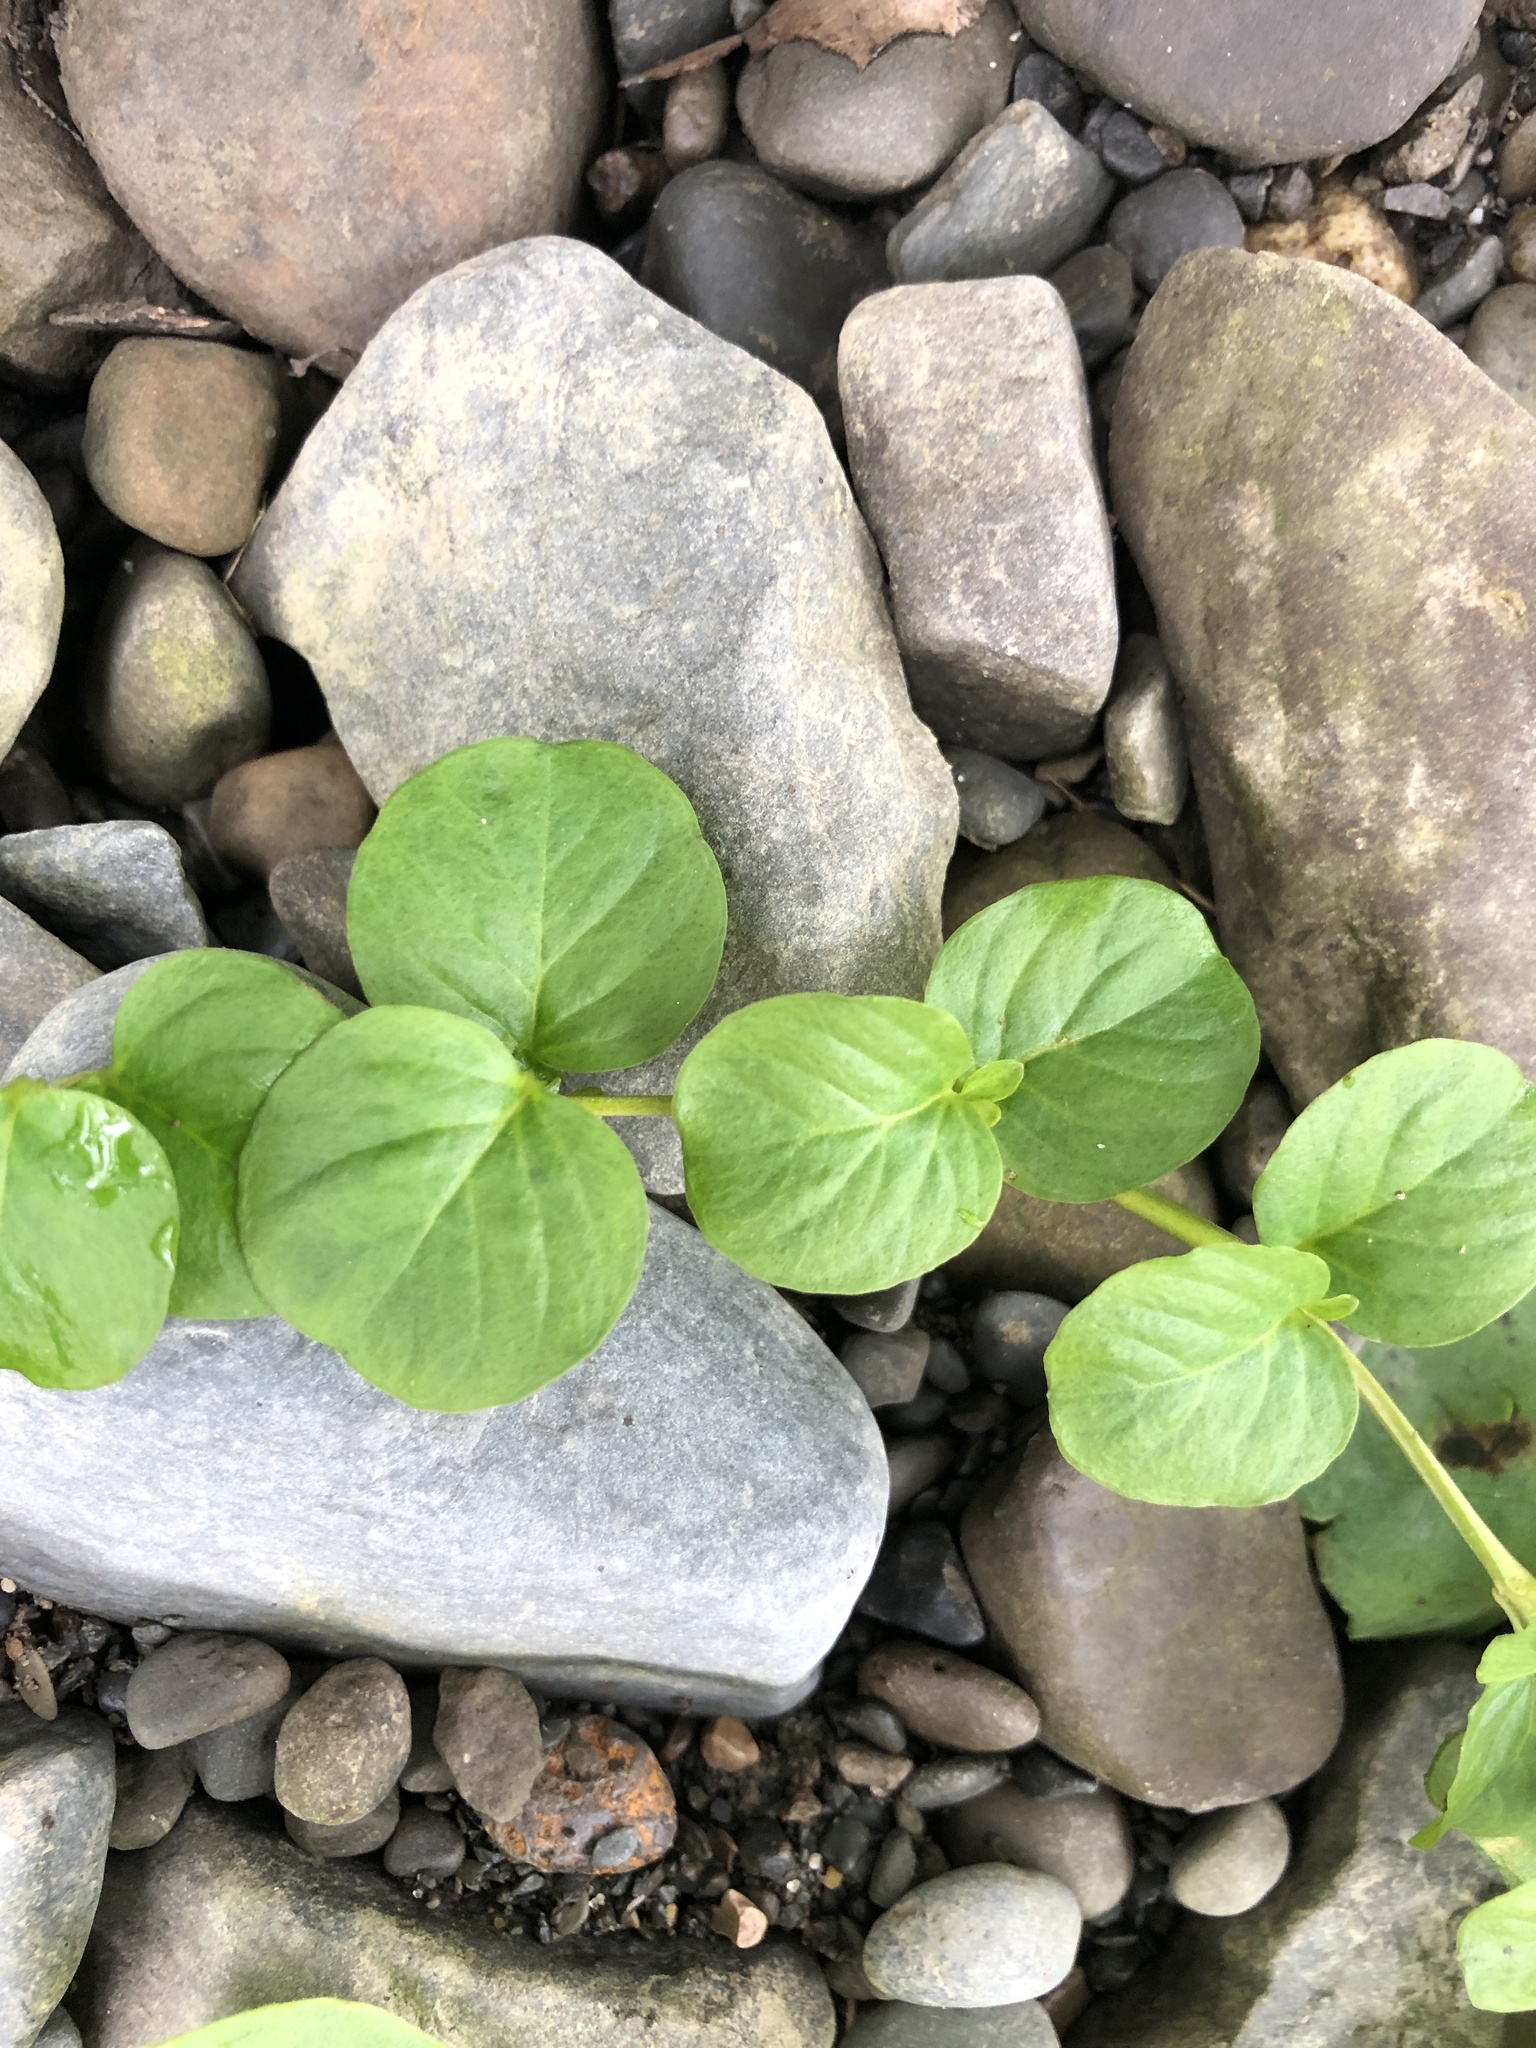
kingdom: Plantae
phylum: Tracheophyta
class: Magnoliopsida
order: Ericales
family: Primulaceae
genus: Lysimachia
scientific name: Lysimachia nummularia
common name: Moneywort
